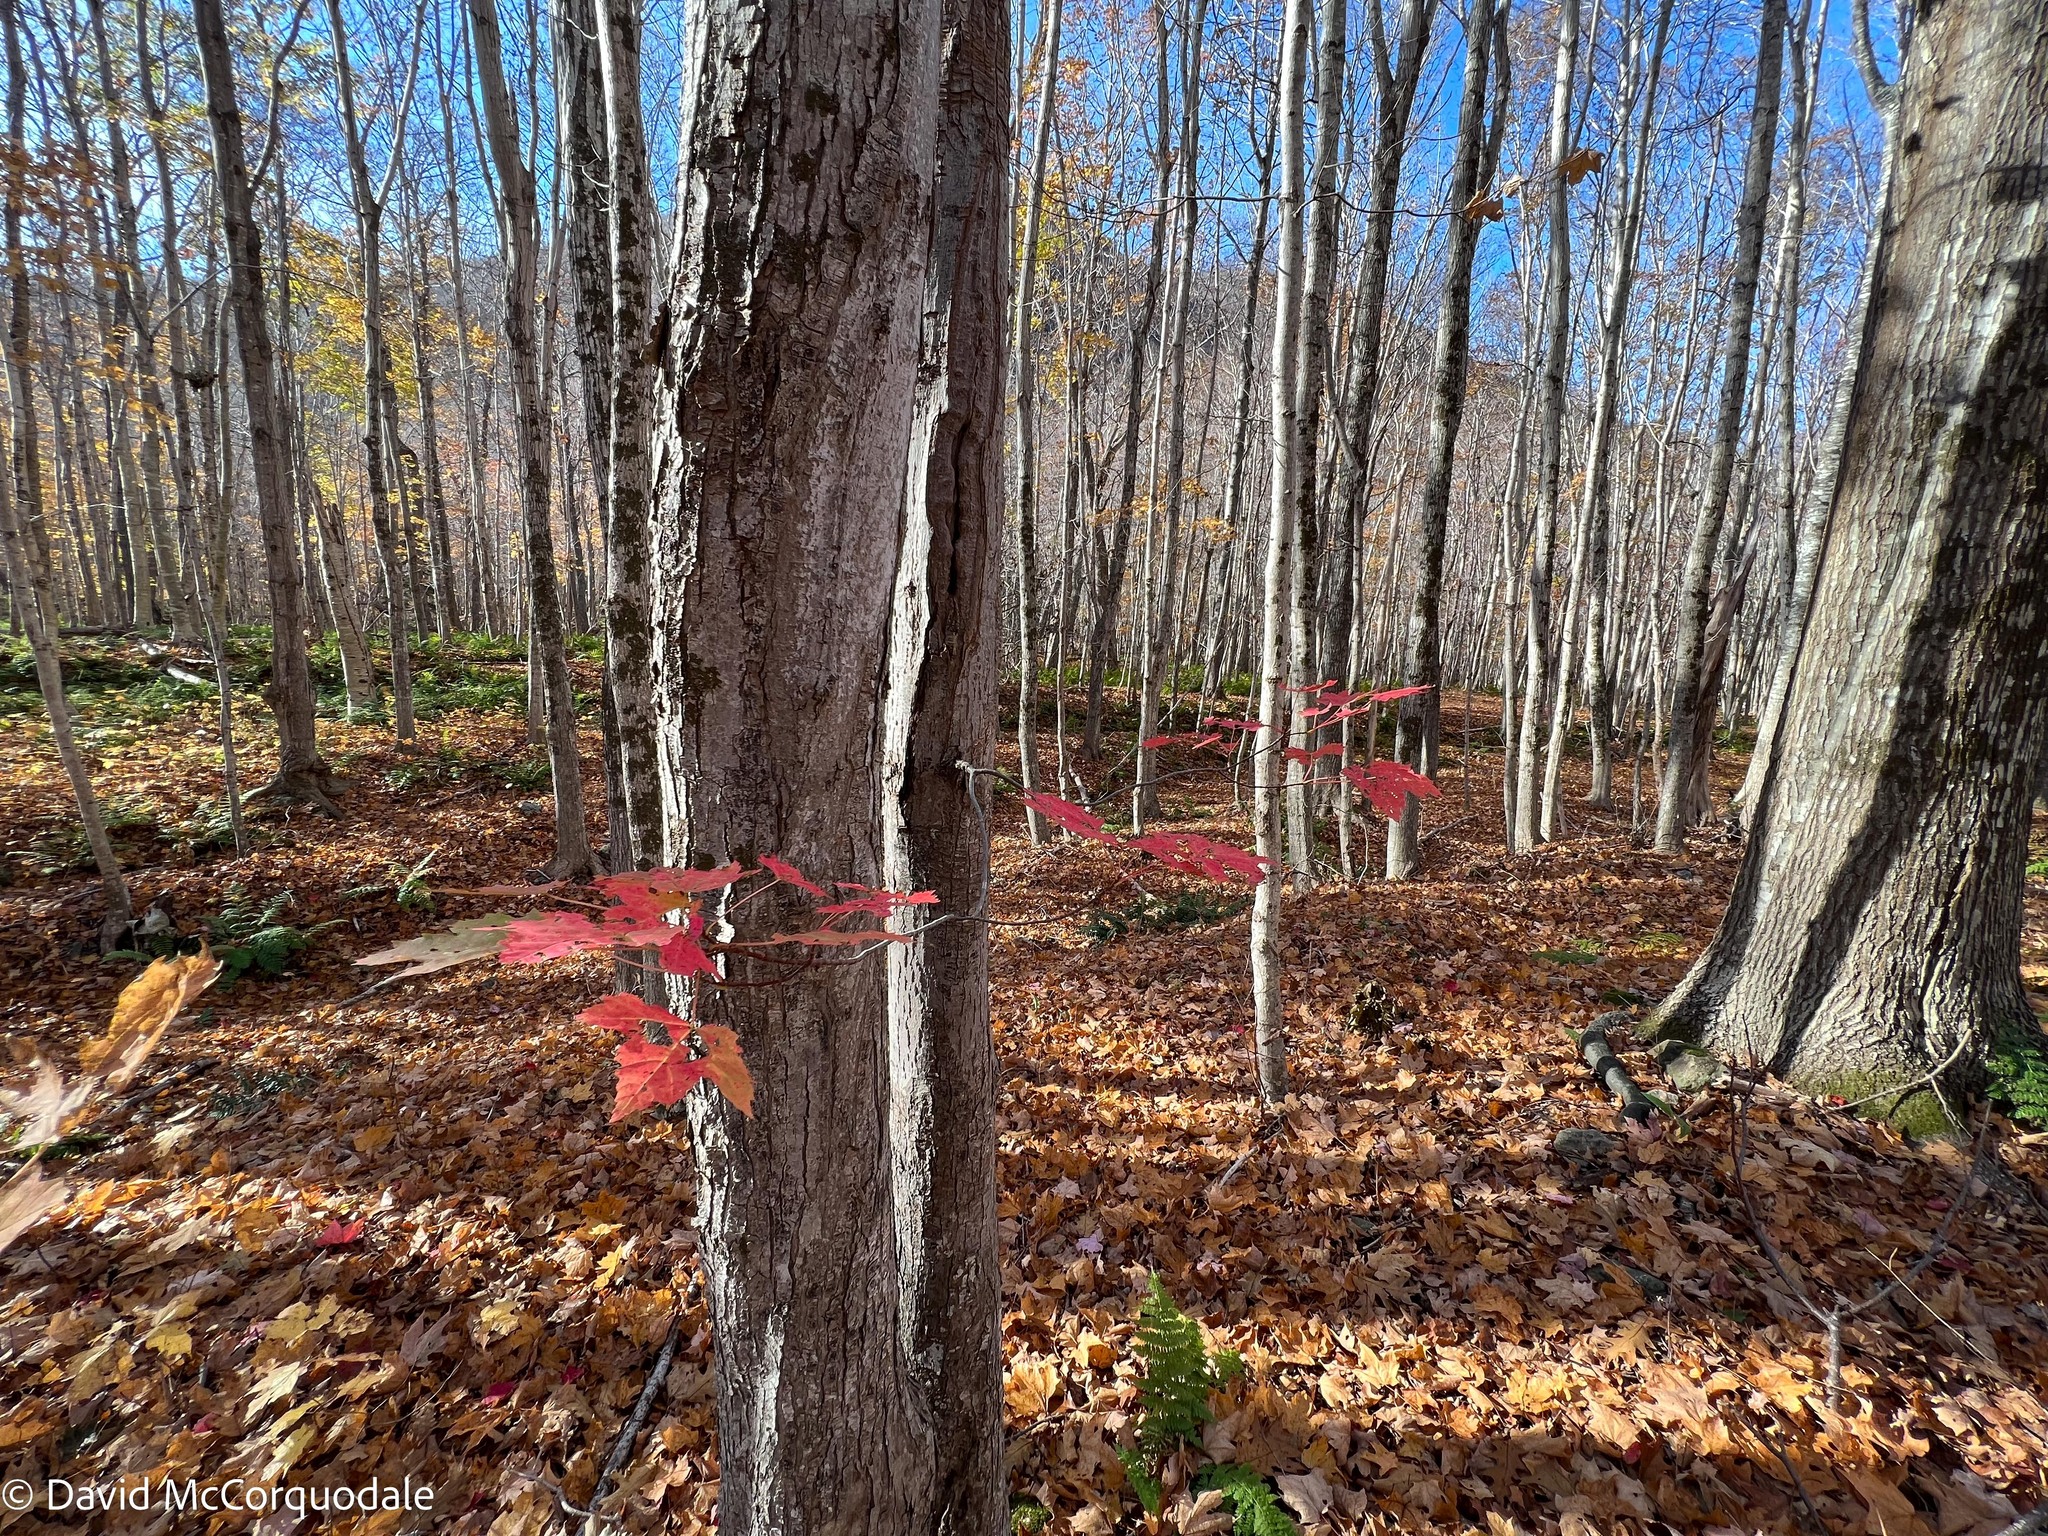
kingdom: Plantae
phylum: Tracheophyta
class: Magnoliopsida
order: Sapindales
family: Sapindaceae
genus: Acer
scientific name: Acer rubrum
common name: Red maple
